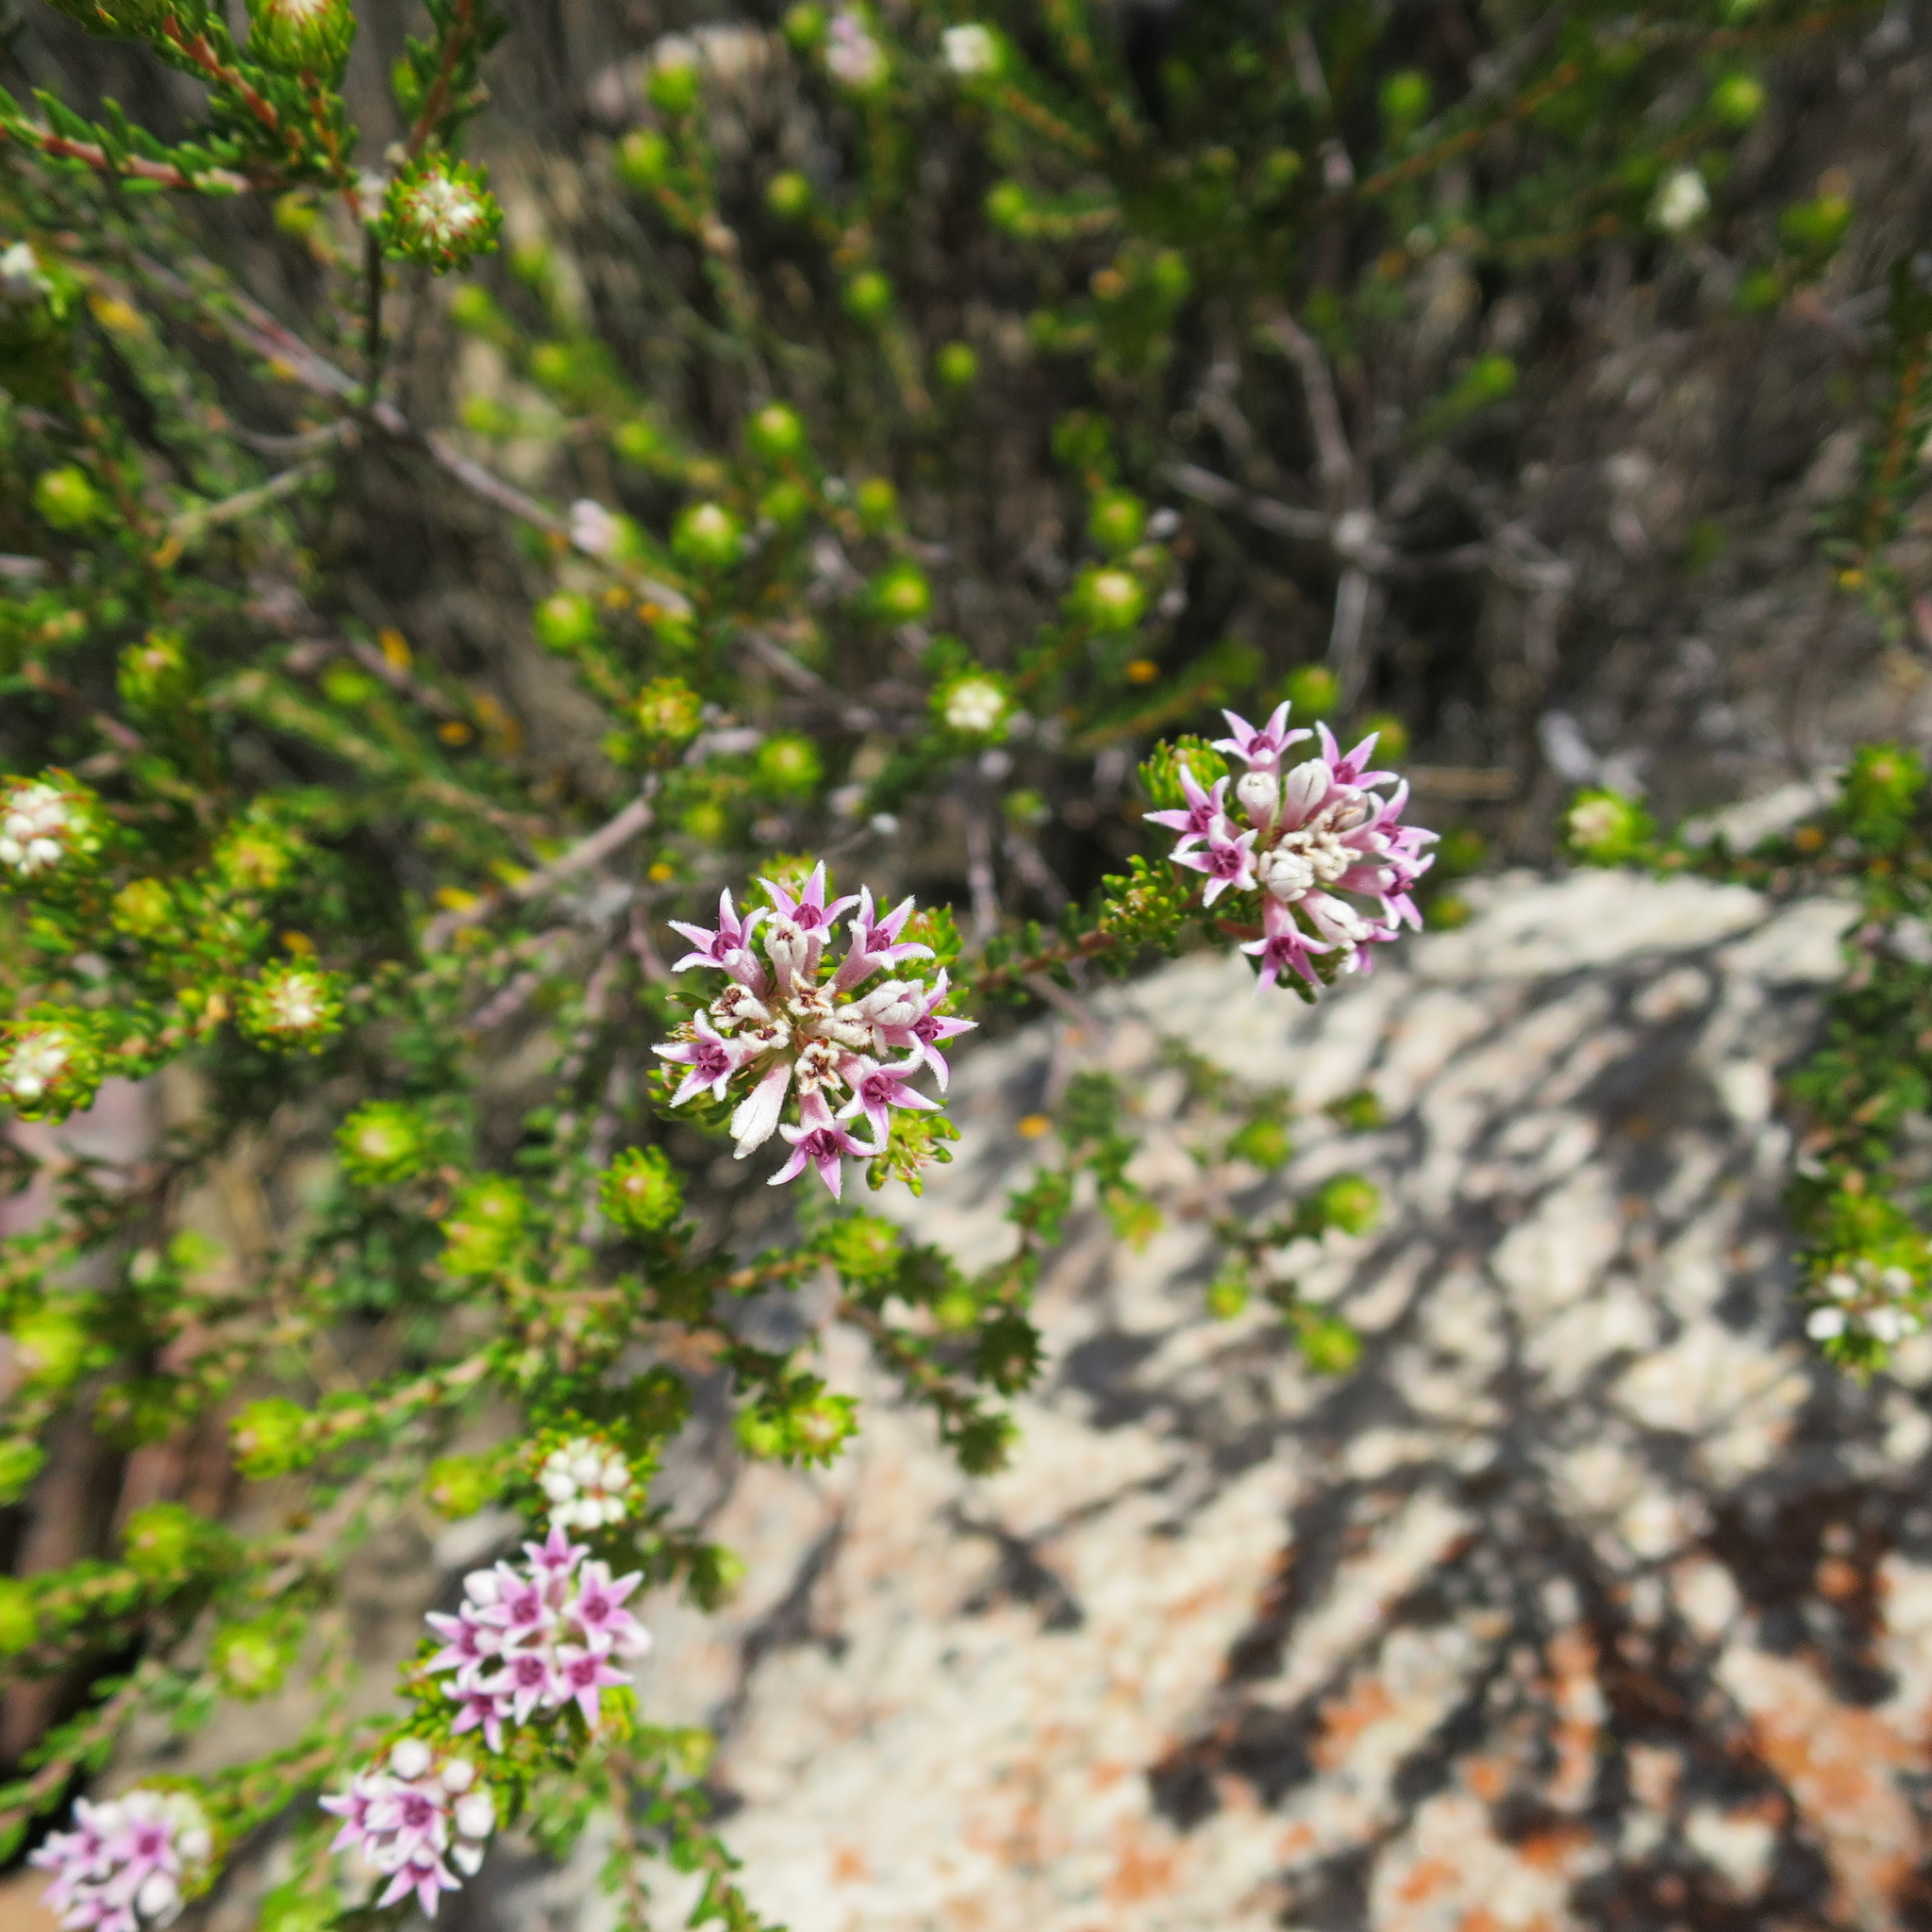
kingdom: Plantae
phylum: Tracheophyta
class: Magnoliopsida
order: Rosales
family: Rhamnaceae
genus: Phylica
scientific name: Phylica lachneaeoides
